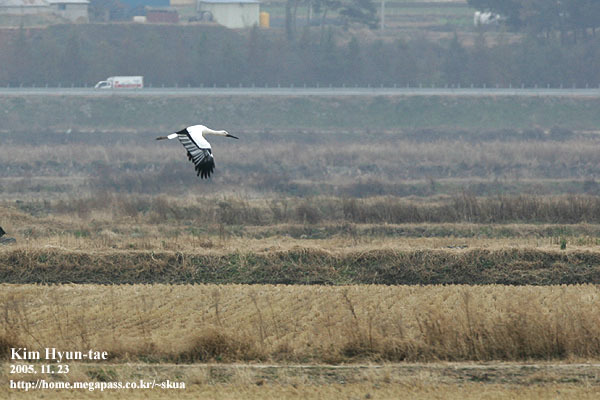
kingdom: Animalia
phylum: Chordata
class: Aves
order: Ciconiiformes
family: Ciconiidae
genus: Ciconia
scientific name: Ciconia boyciana
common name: Oriental stork
